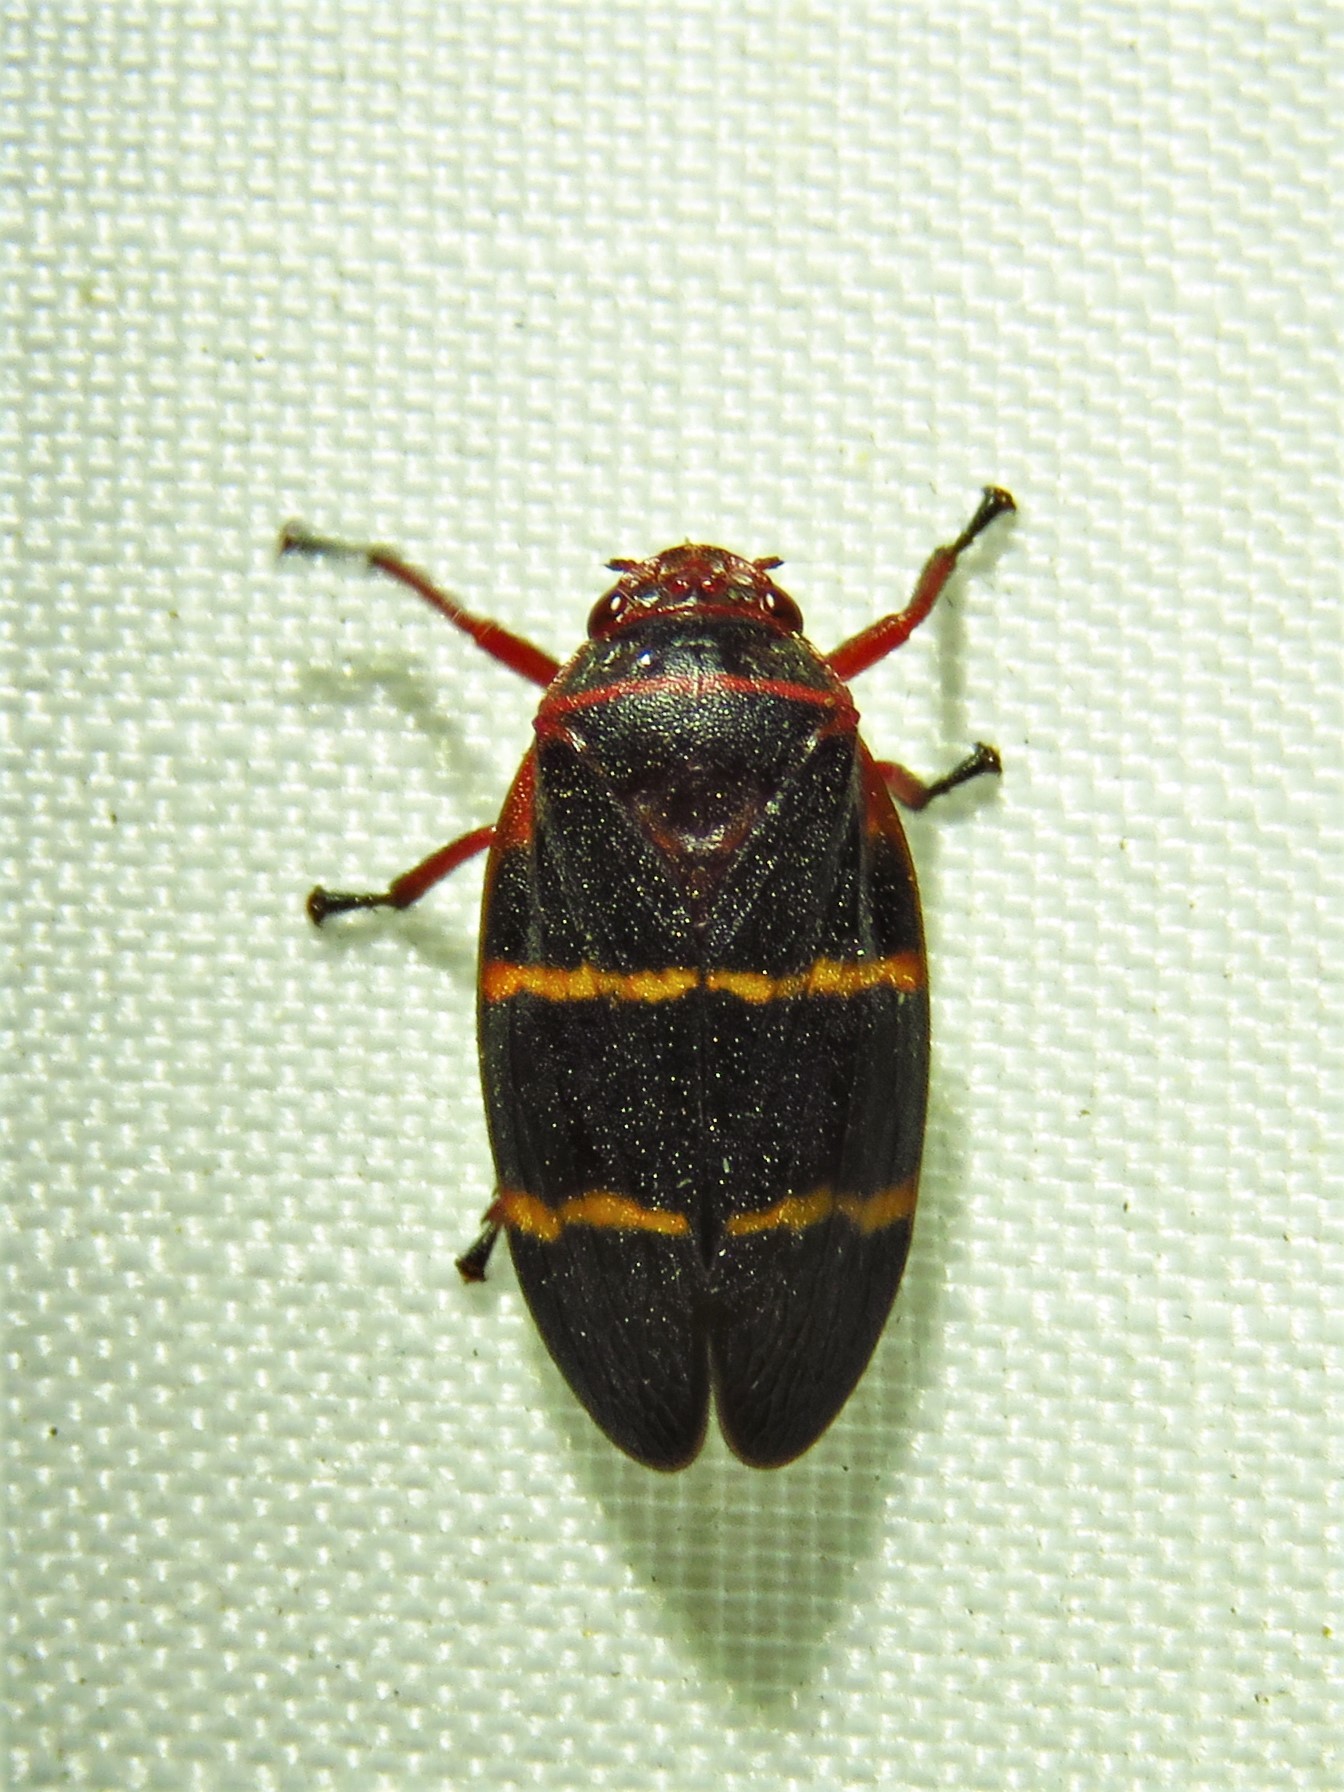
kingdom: Animalia
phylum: Arthropoda
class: Insecta
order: Hemiptera
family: Cercopidae
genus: Prosapia
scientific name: Prosapia bicincta
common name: Twolined spittlebug
